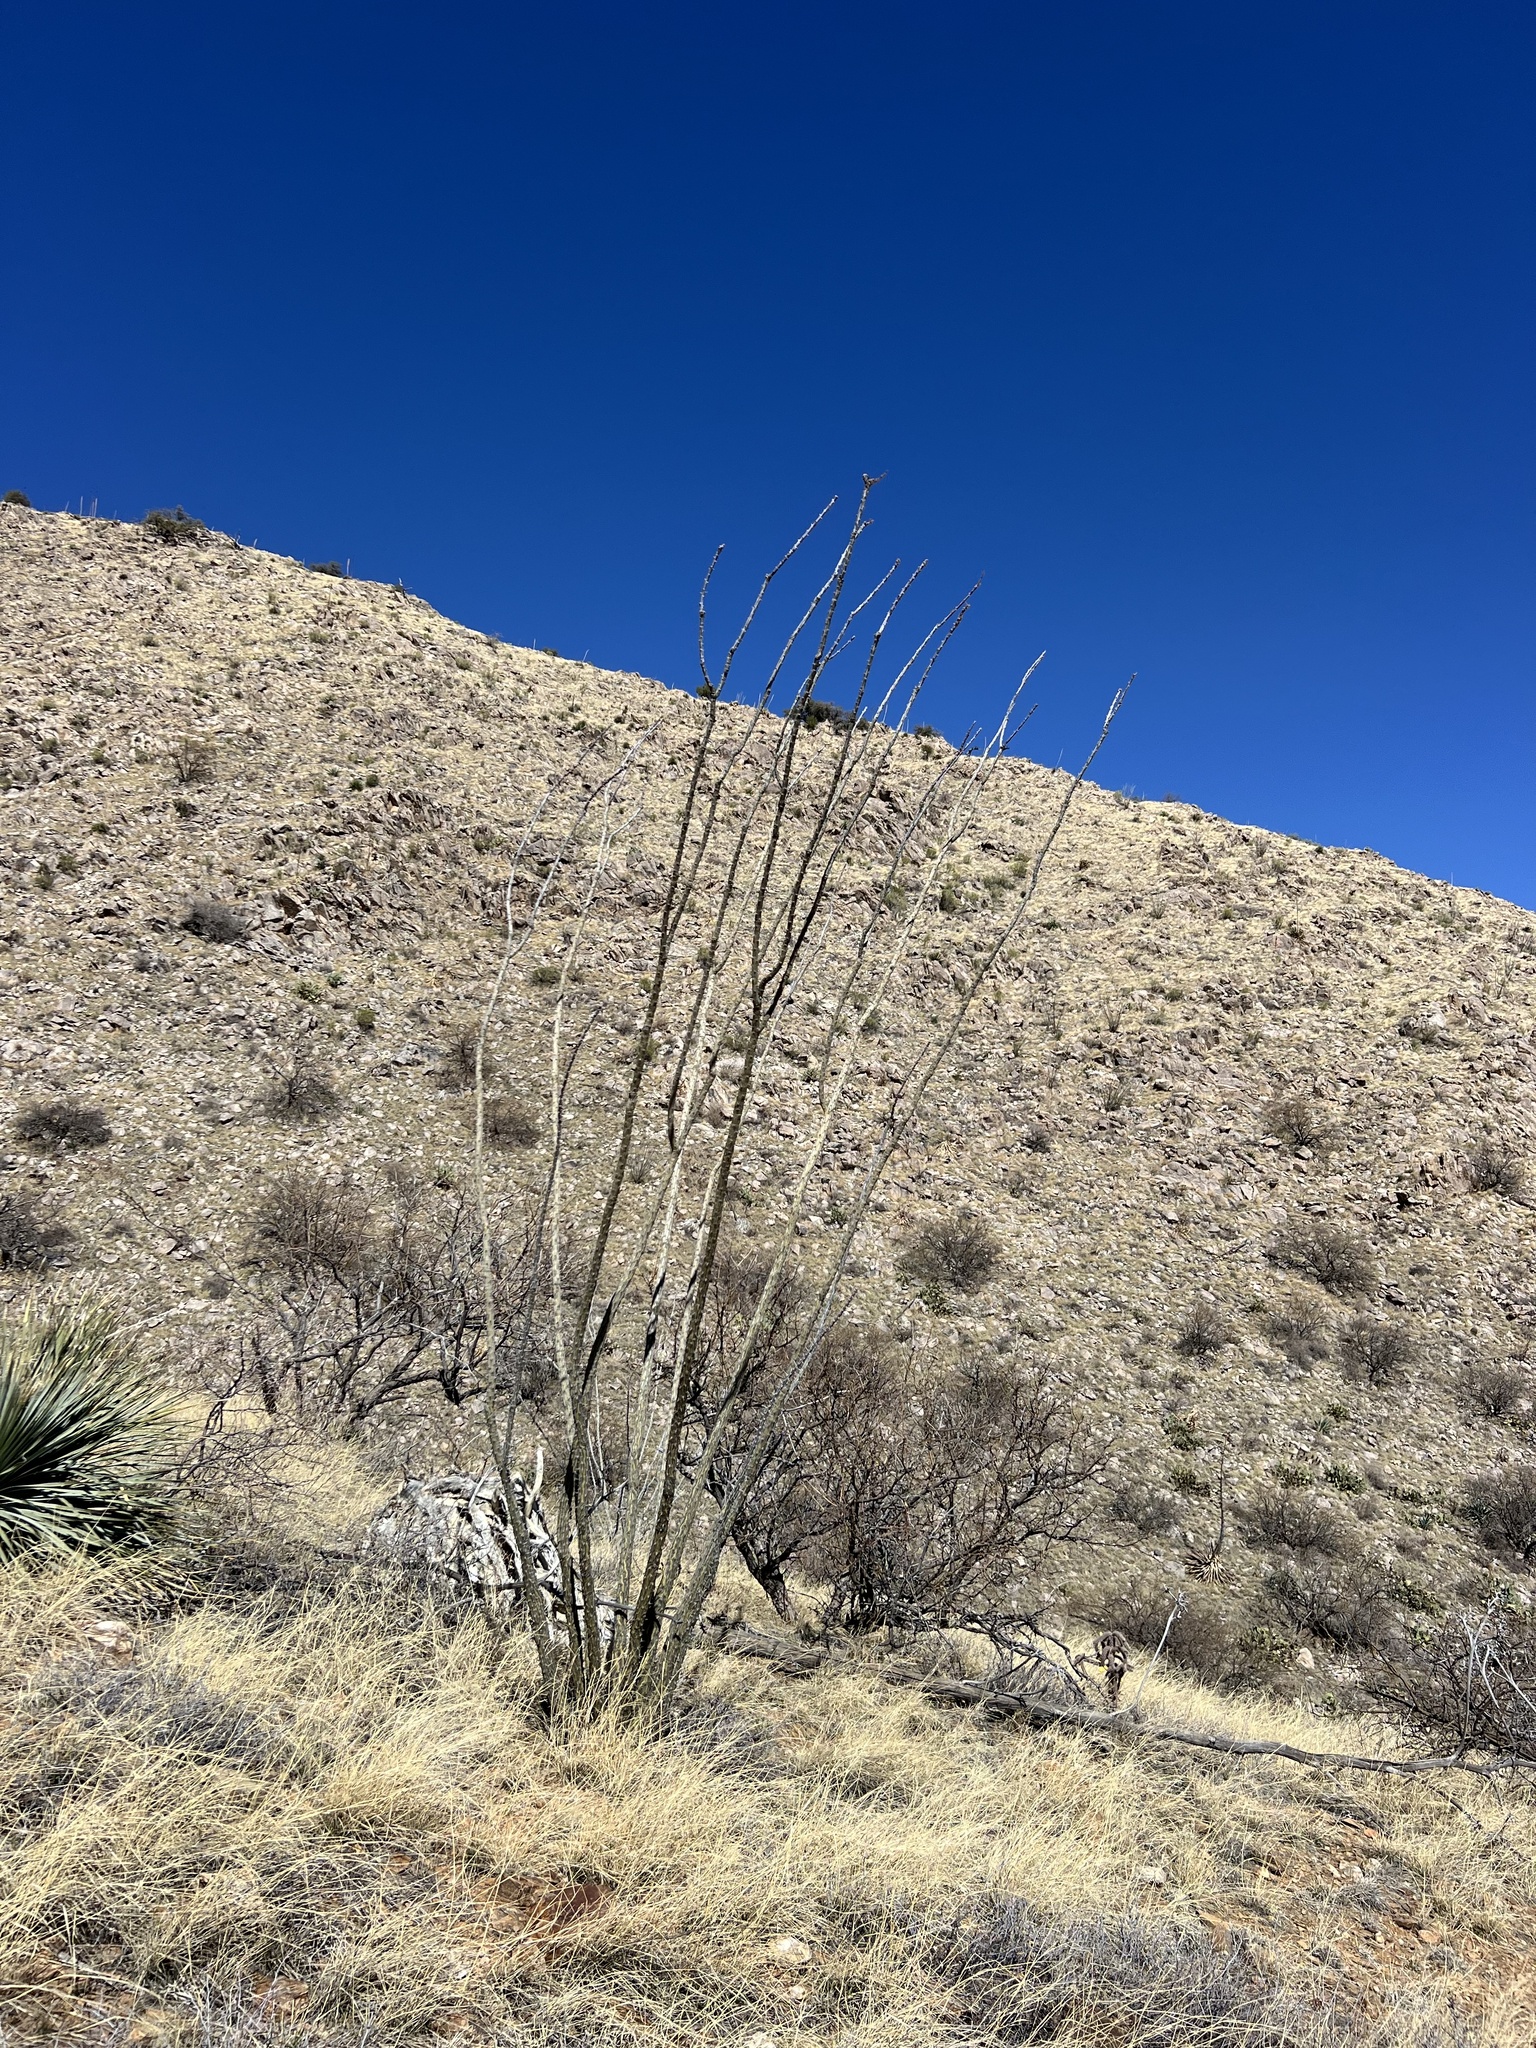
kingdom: Plantae
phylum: Tracheophyta
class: Magnoliopsida
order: Ericales
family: Fouquieriaceae
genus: Fouquieria
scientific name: Fouquieria splendens
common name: Vine-cactus
